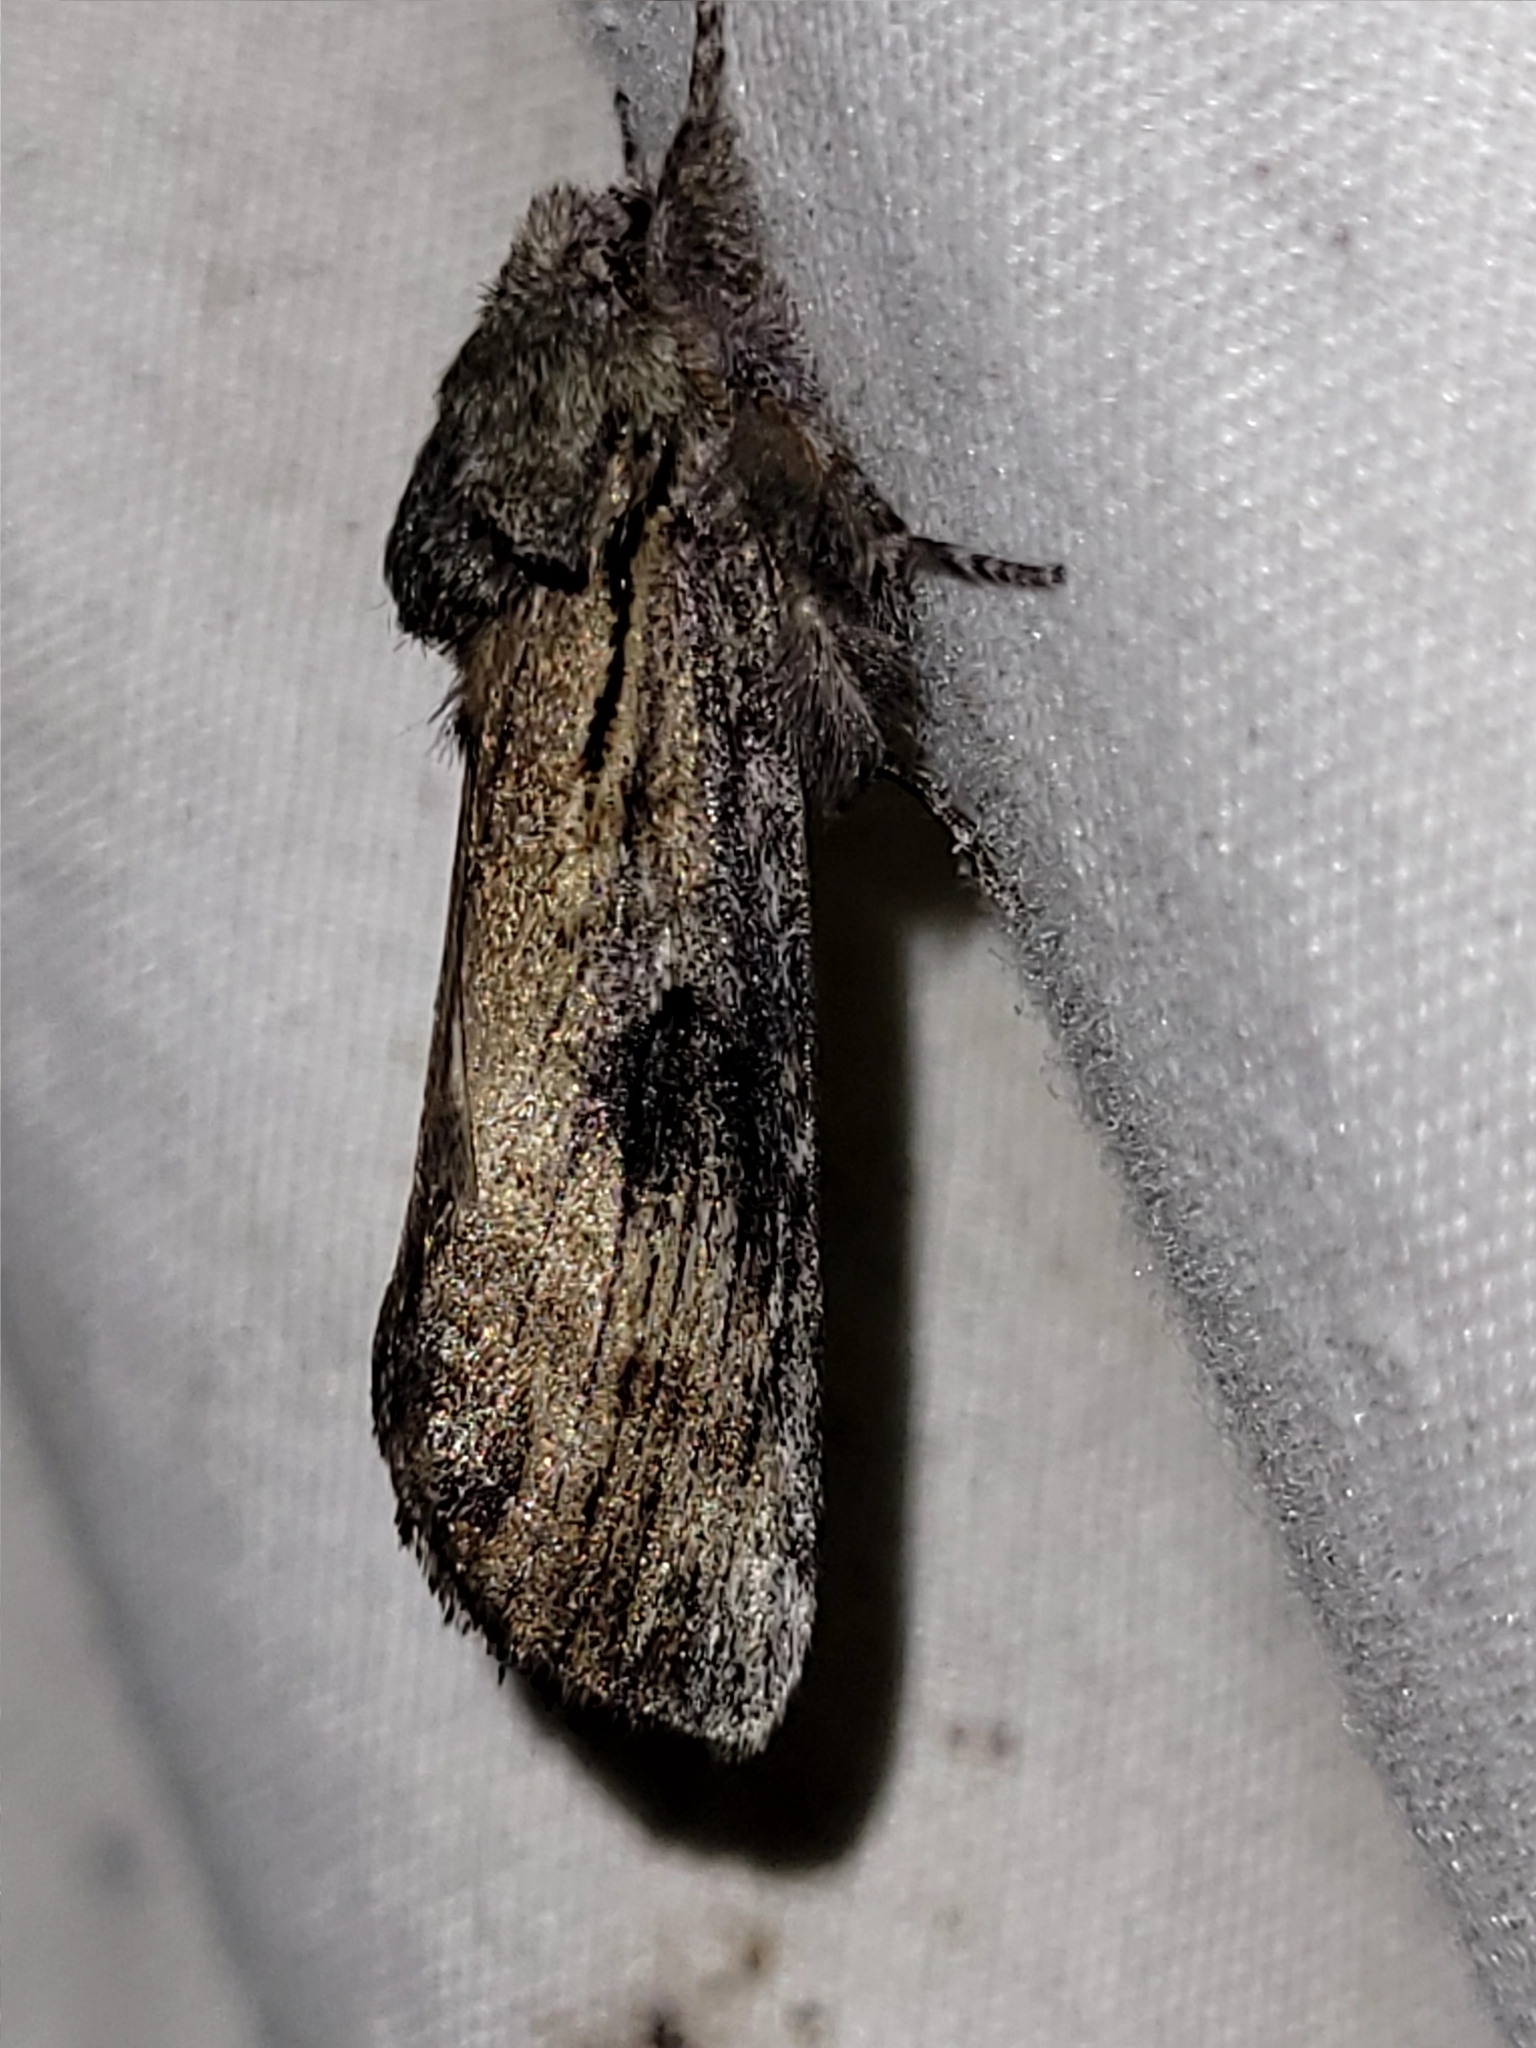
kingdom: Animalia
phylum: Arthropoda
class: Insecta
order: Lepidoptera
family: Notodontidae
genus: Schizura
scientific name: Schizura
